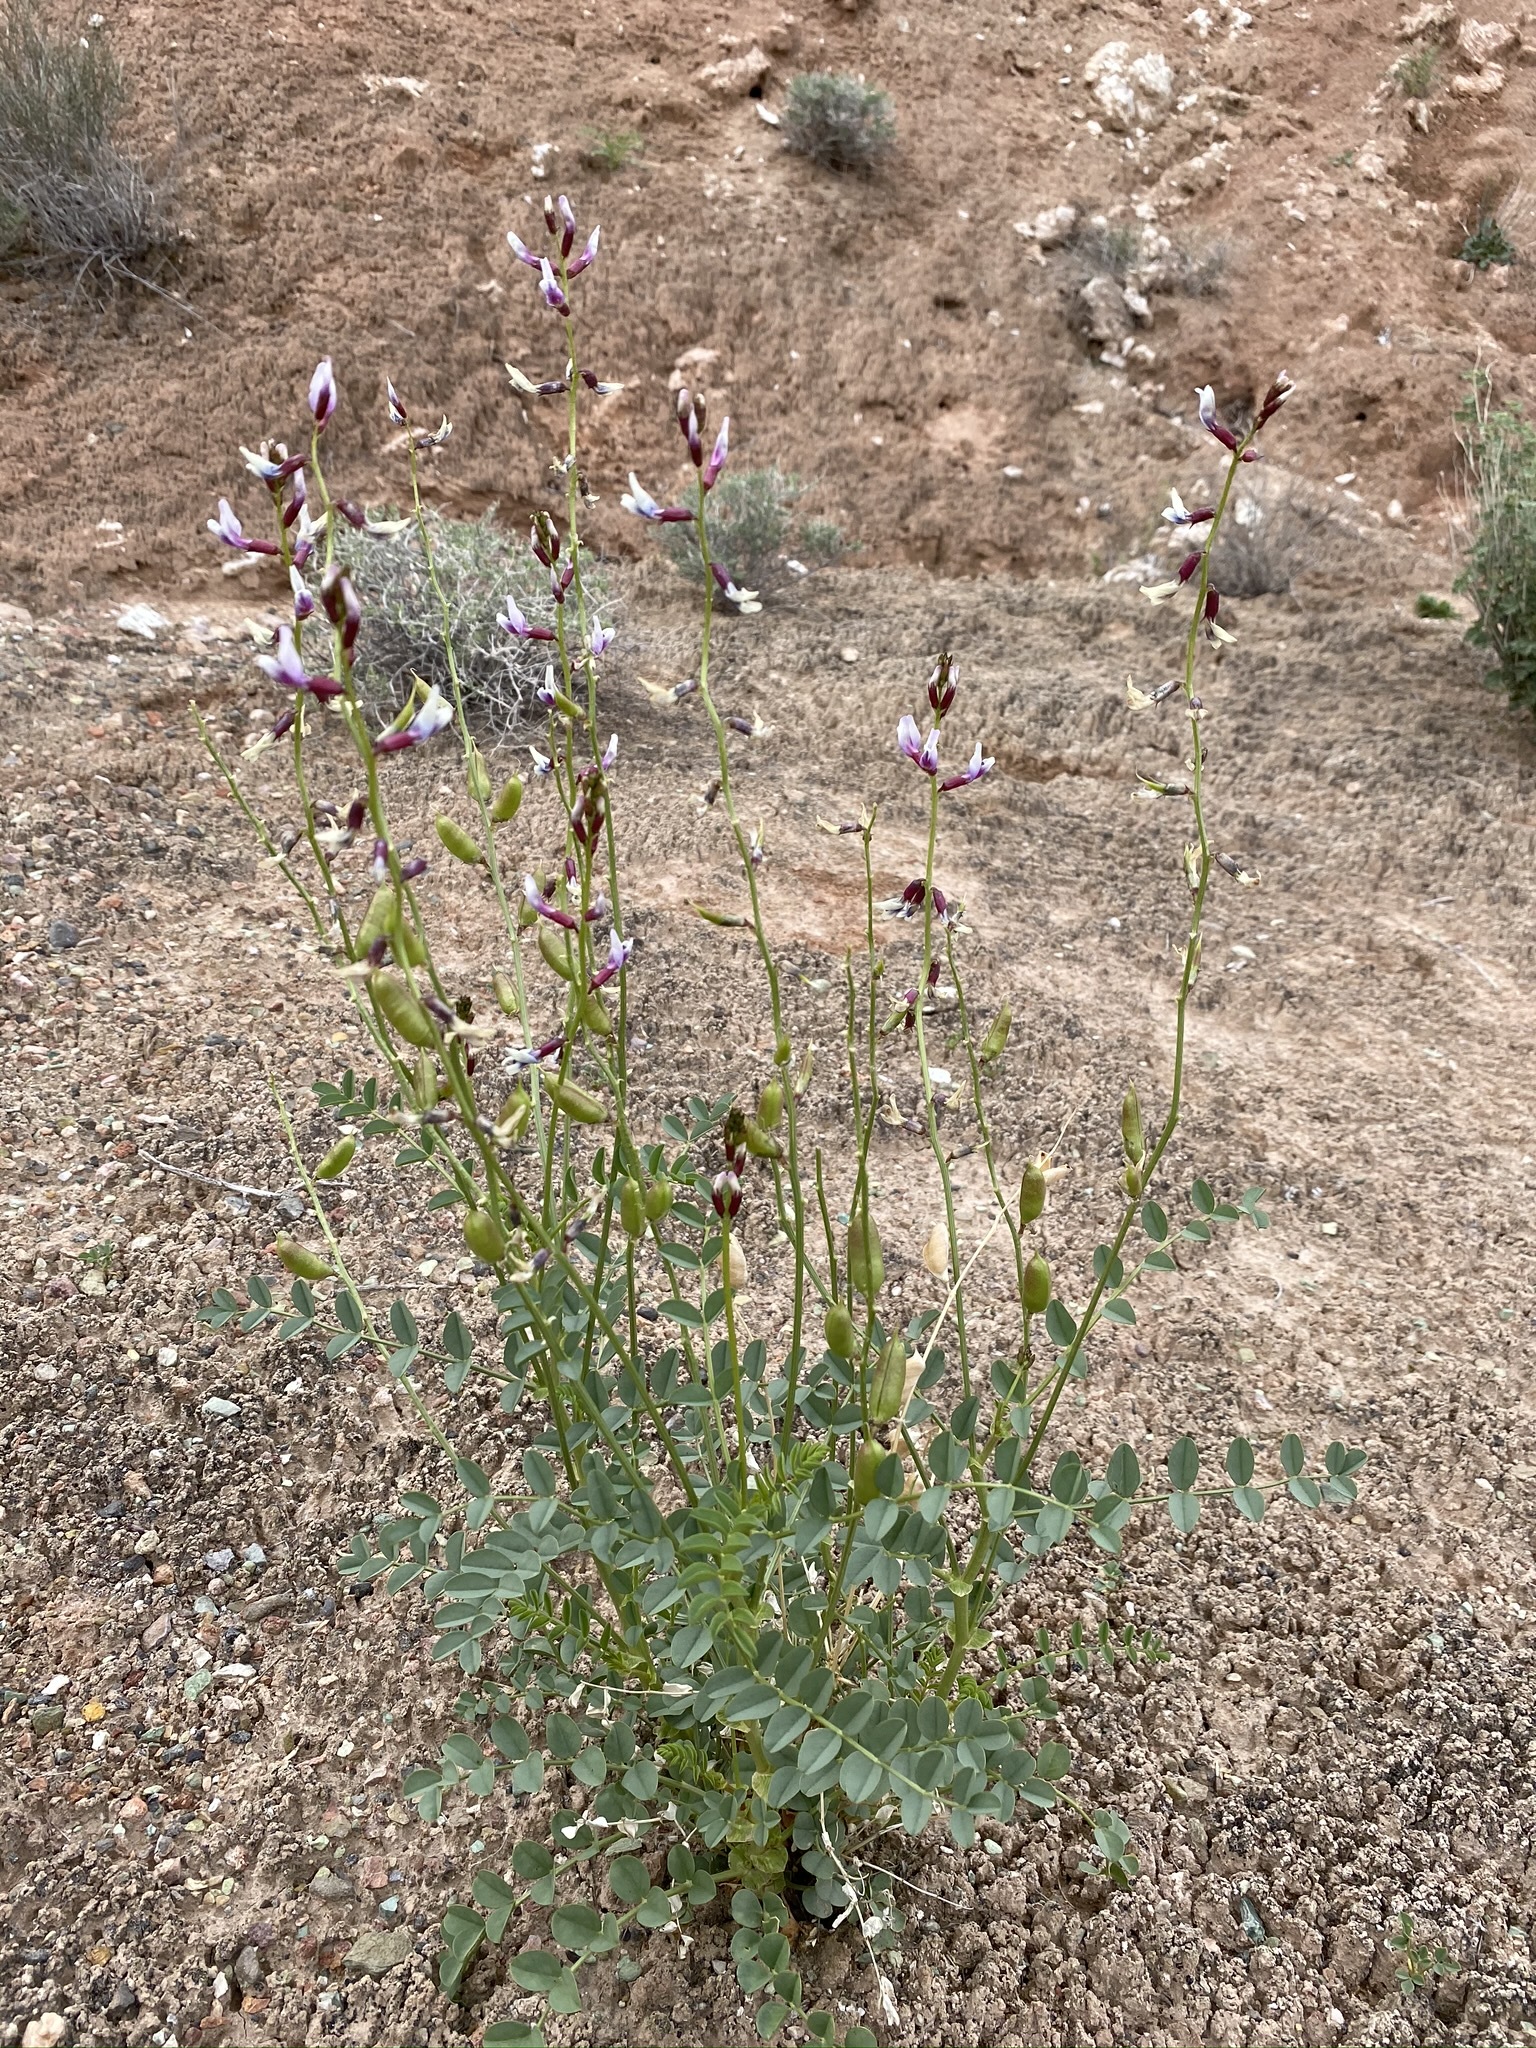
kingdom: Plantae
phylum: Tracheophyta
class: Magnoliopsida
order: Fabales
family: Fabaceae
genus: Astragalus
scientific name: Astragalus preussii
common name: Preuss's milk-vetch
